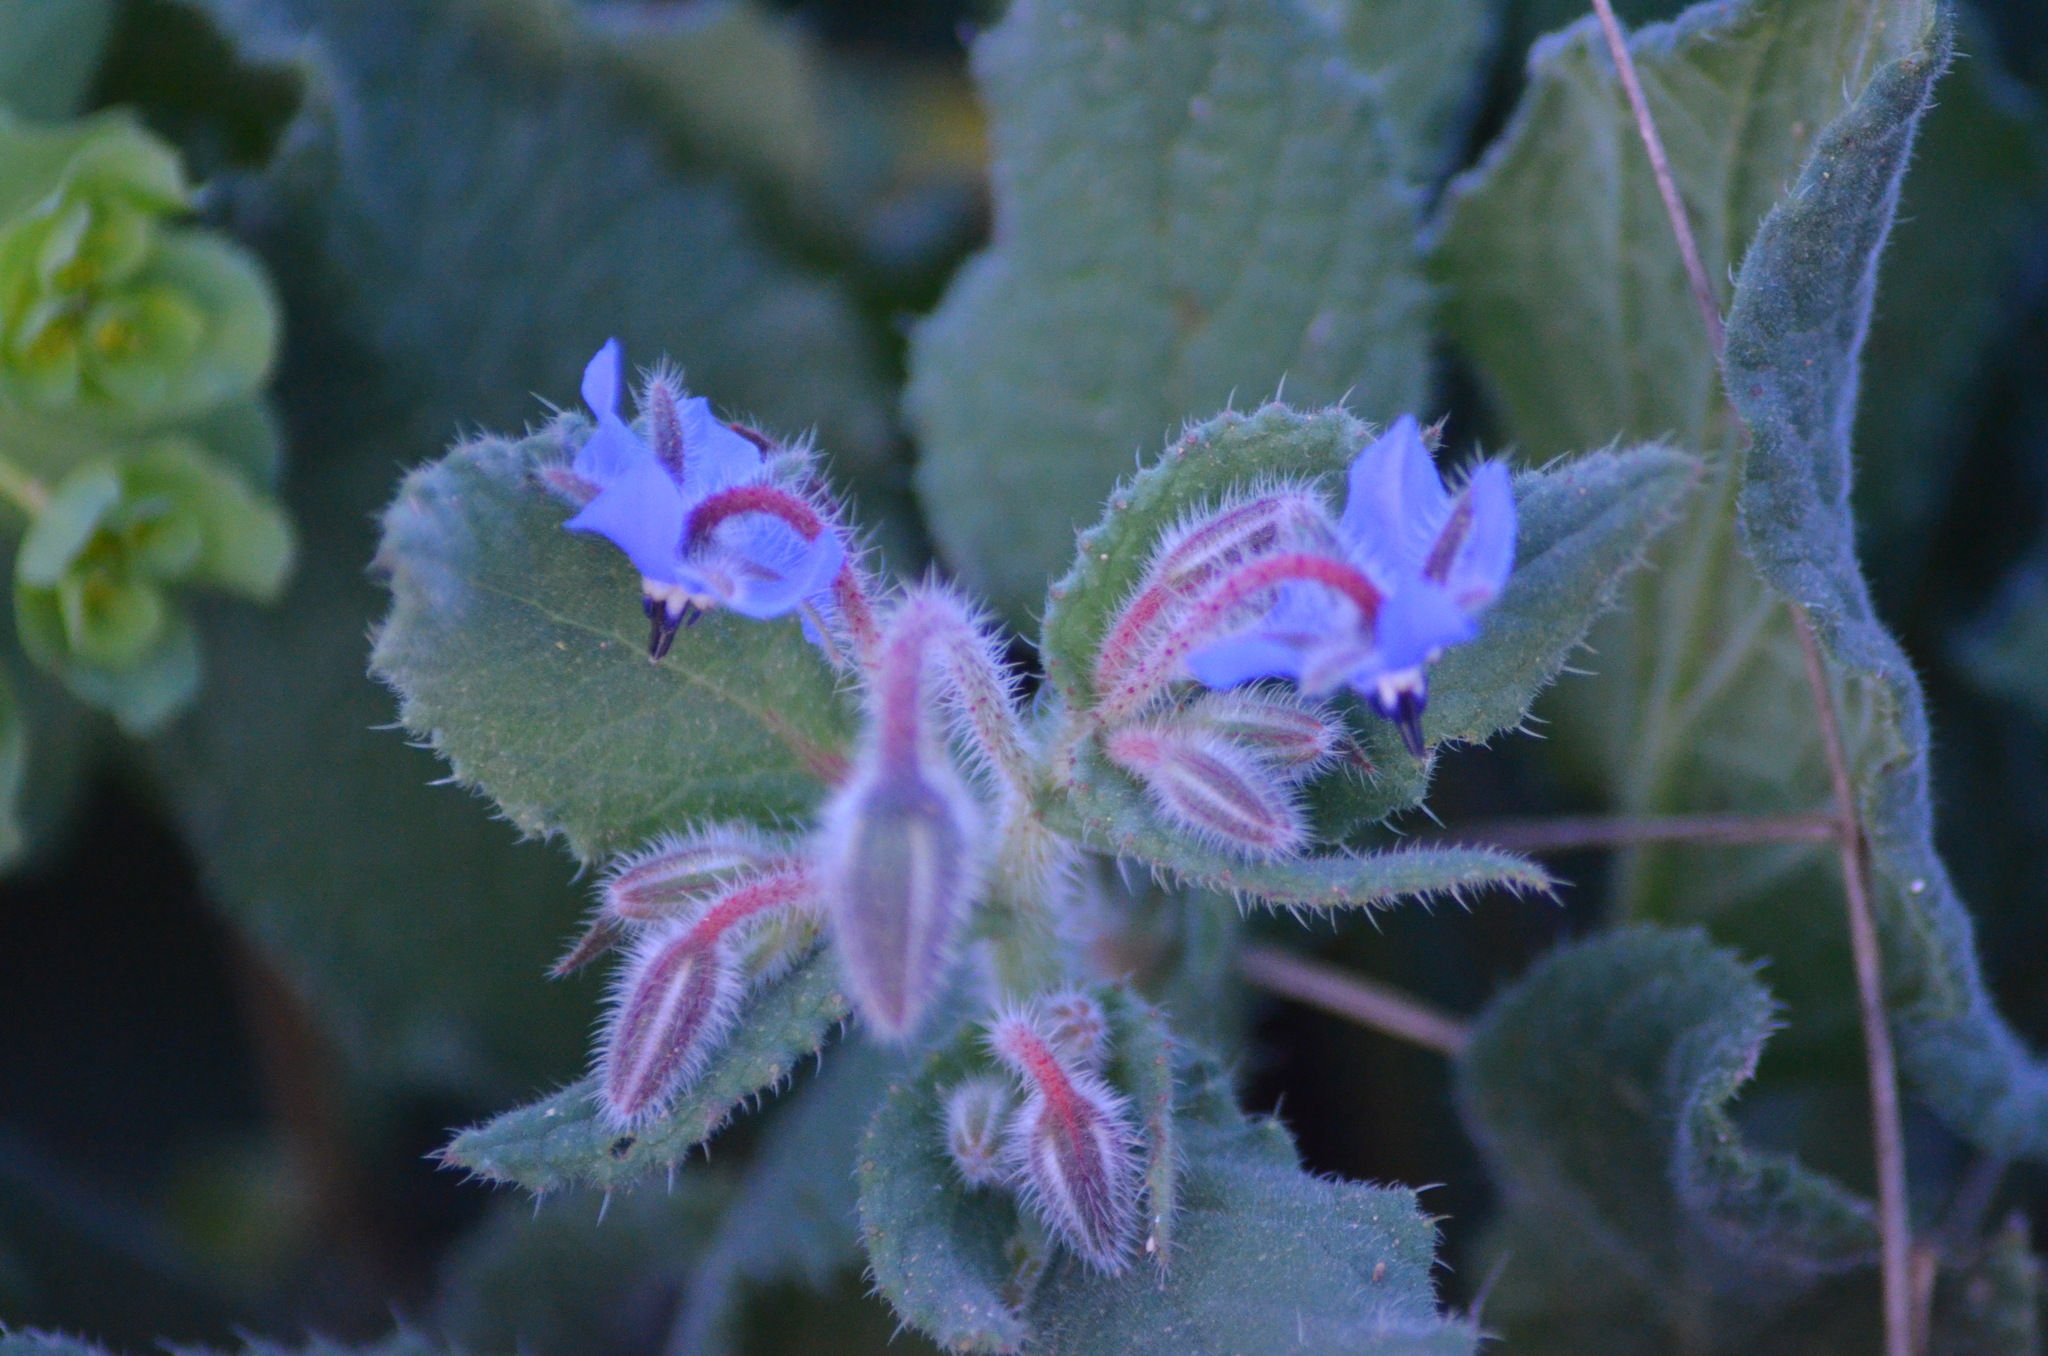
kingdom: Plantae
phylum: Tracheophyta
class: Magnoliopsida
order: Boraginales
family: Boraginaceae
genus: Borago
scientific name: Borago officinalis
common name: Borage
